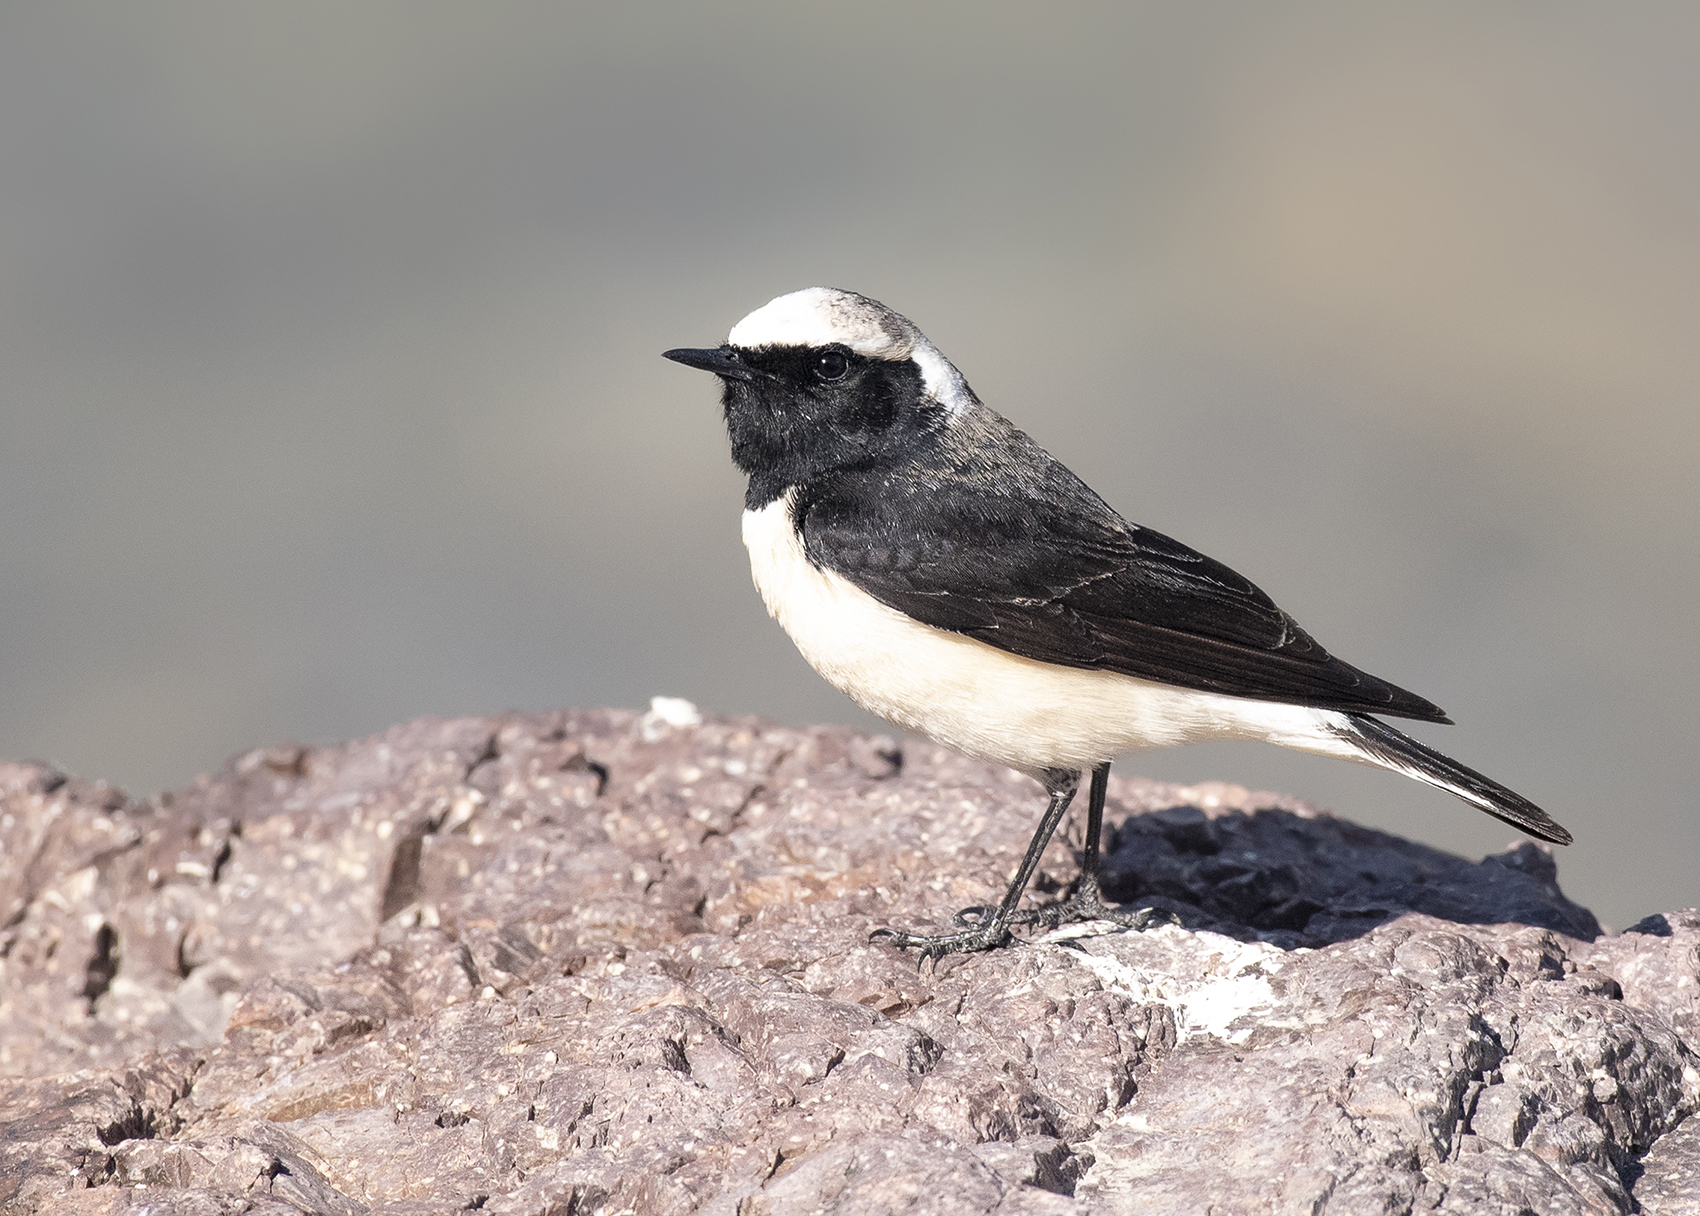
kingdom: Animalia
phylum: Chordata
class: Aves
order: Passeriformes
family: Muscicapidae
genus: Oenanthe
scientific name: Oenanthe pleschanka
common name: Pied wheatear
